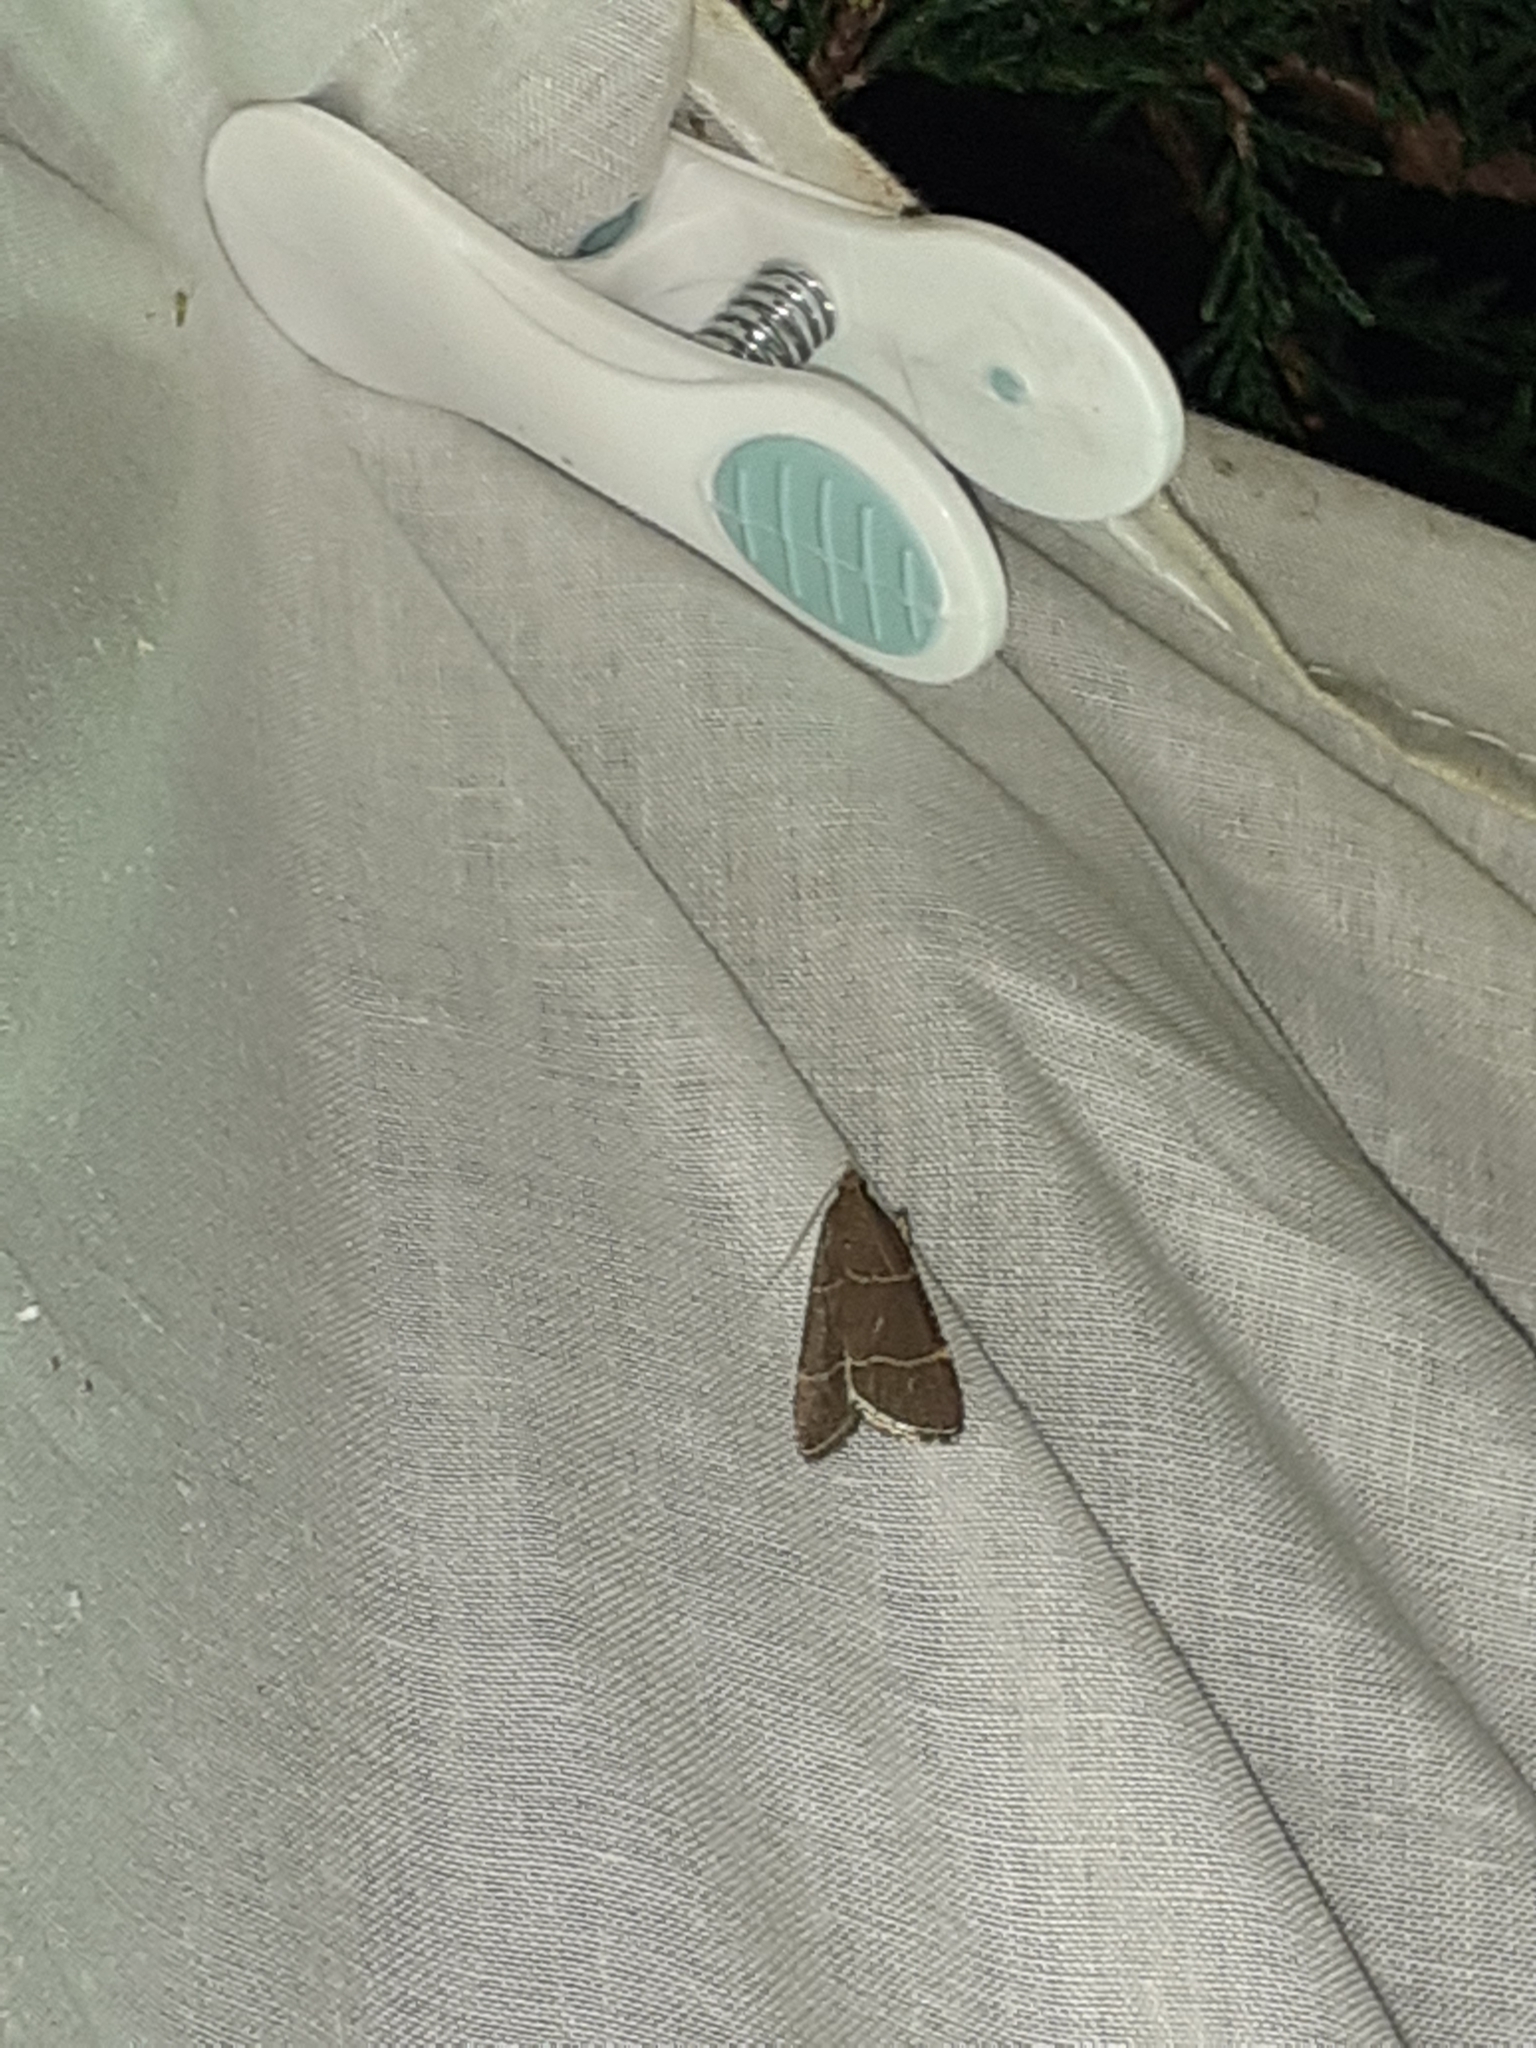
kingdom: Animalia
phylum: Arthropoda
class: Insecta
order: Lepidoptera
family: Pyralidae
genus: Hypsopygia
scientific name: Hypsopygia glaucinalis
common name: Double-striped tabby
